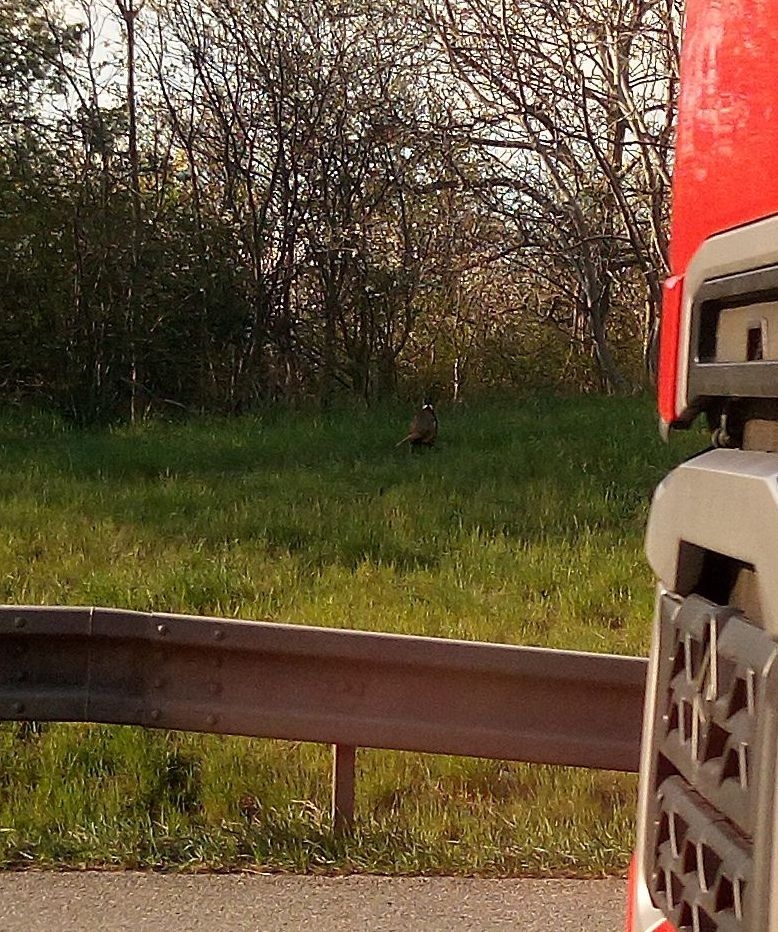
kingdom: Animalia
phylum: Chordata
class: Aves
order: Galliformes
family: Phasianidae
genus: Phasianus
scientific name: Phasianus colchicus
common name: Common pheasant
